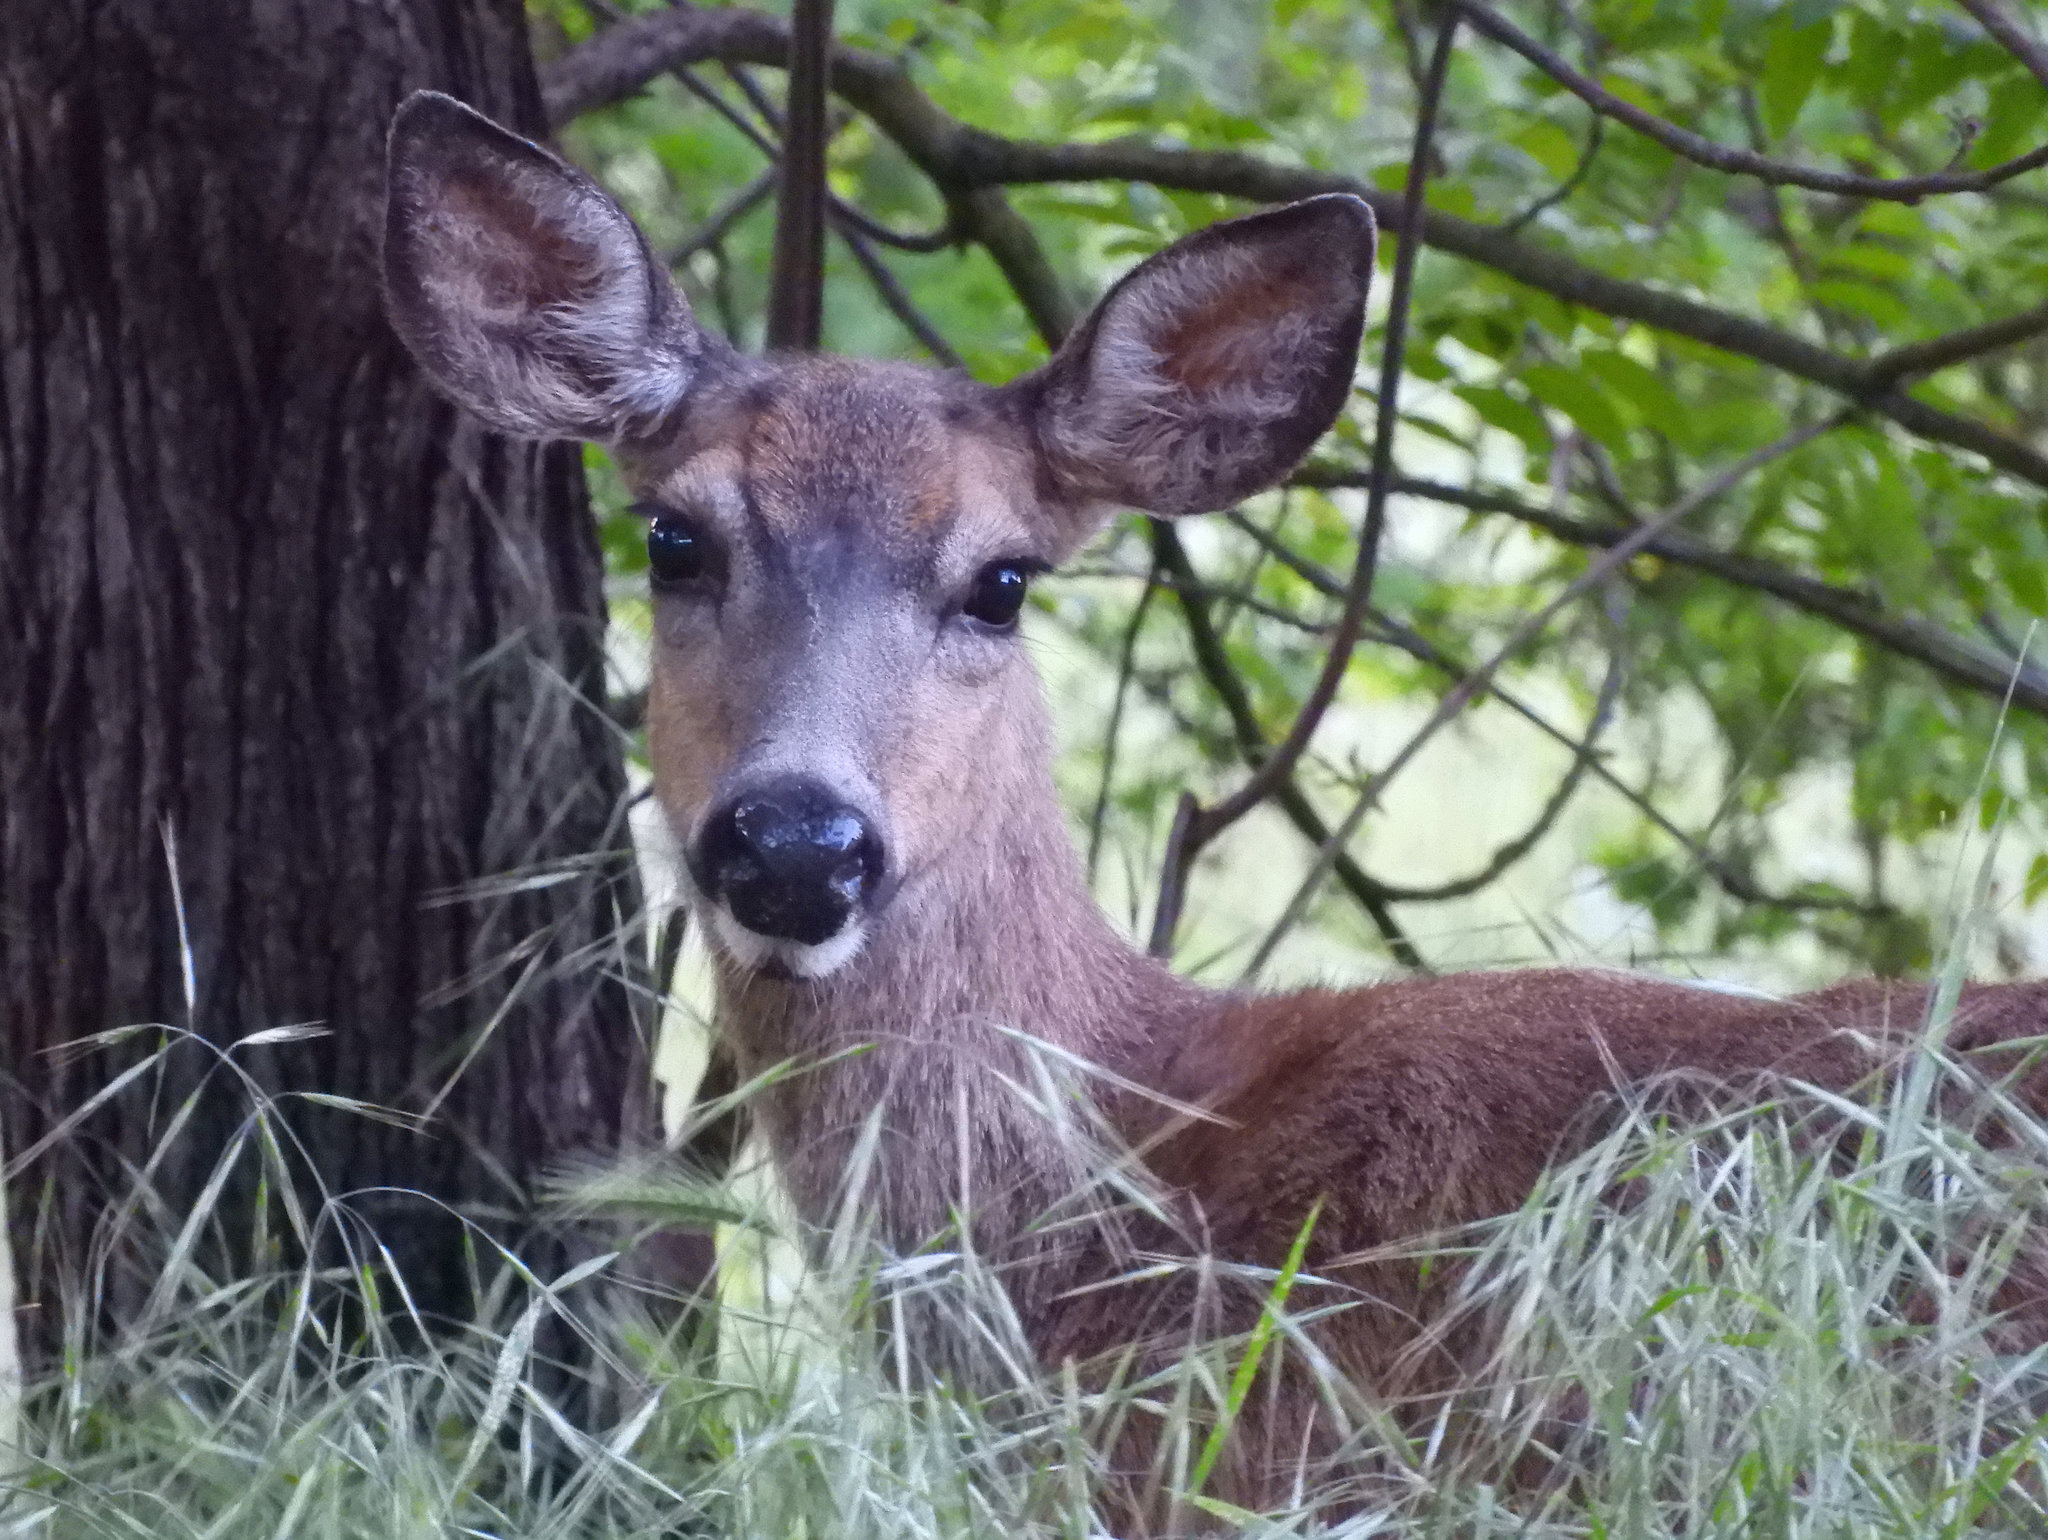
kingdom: Animalia
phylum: Chordata
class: Mammalia
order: Artiodactyla
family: Cervidae
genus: Odocoileus
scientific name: Odocoileus hemionus
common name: Mule deer
